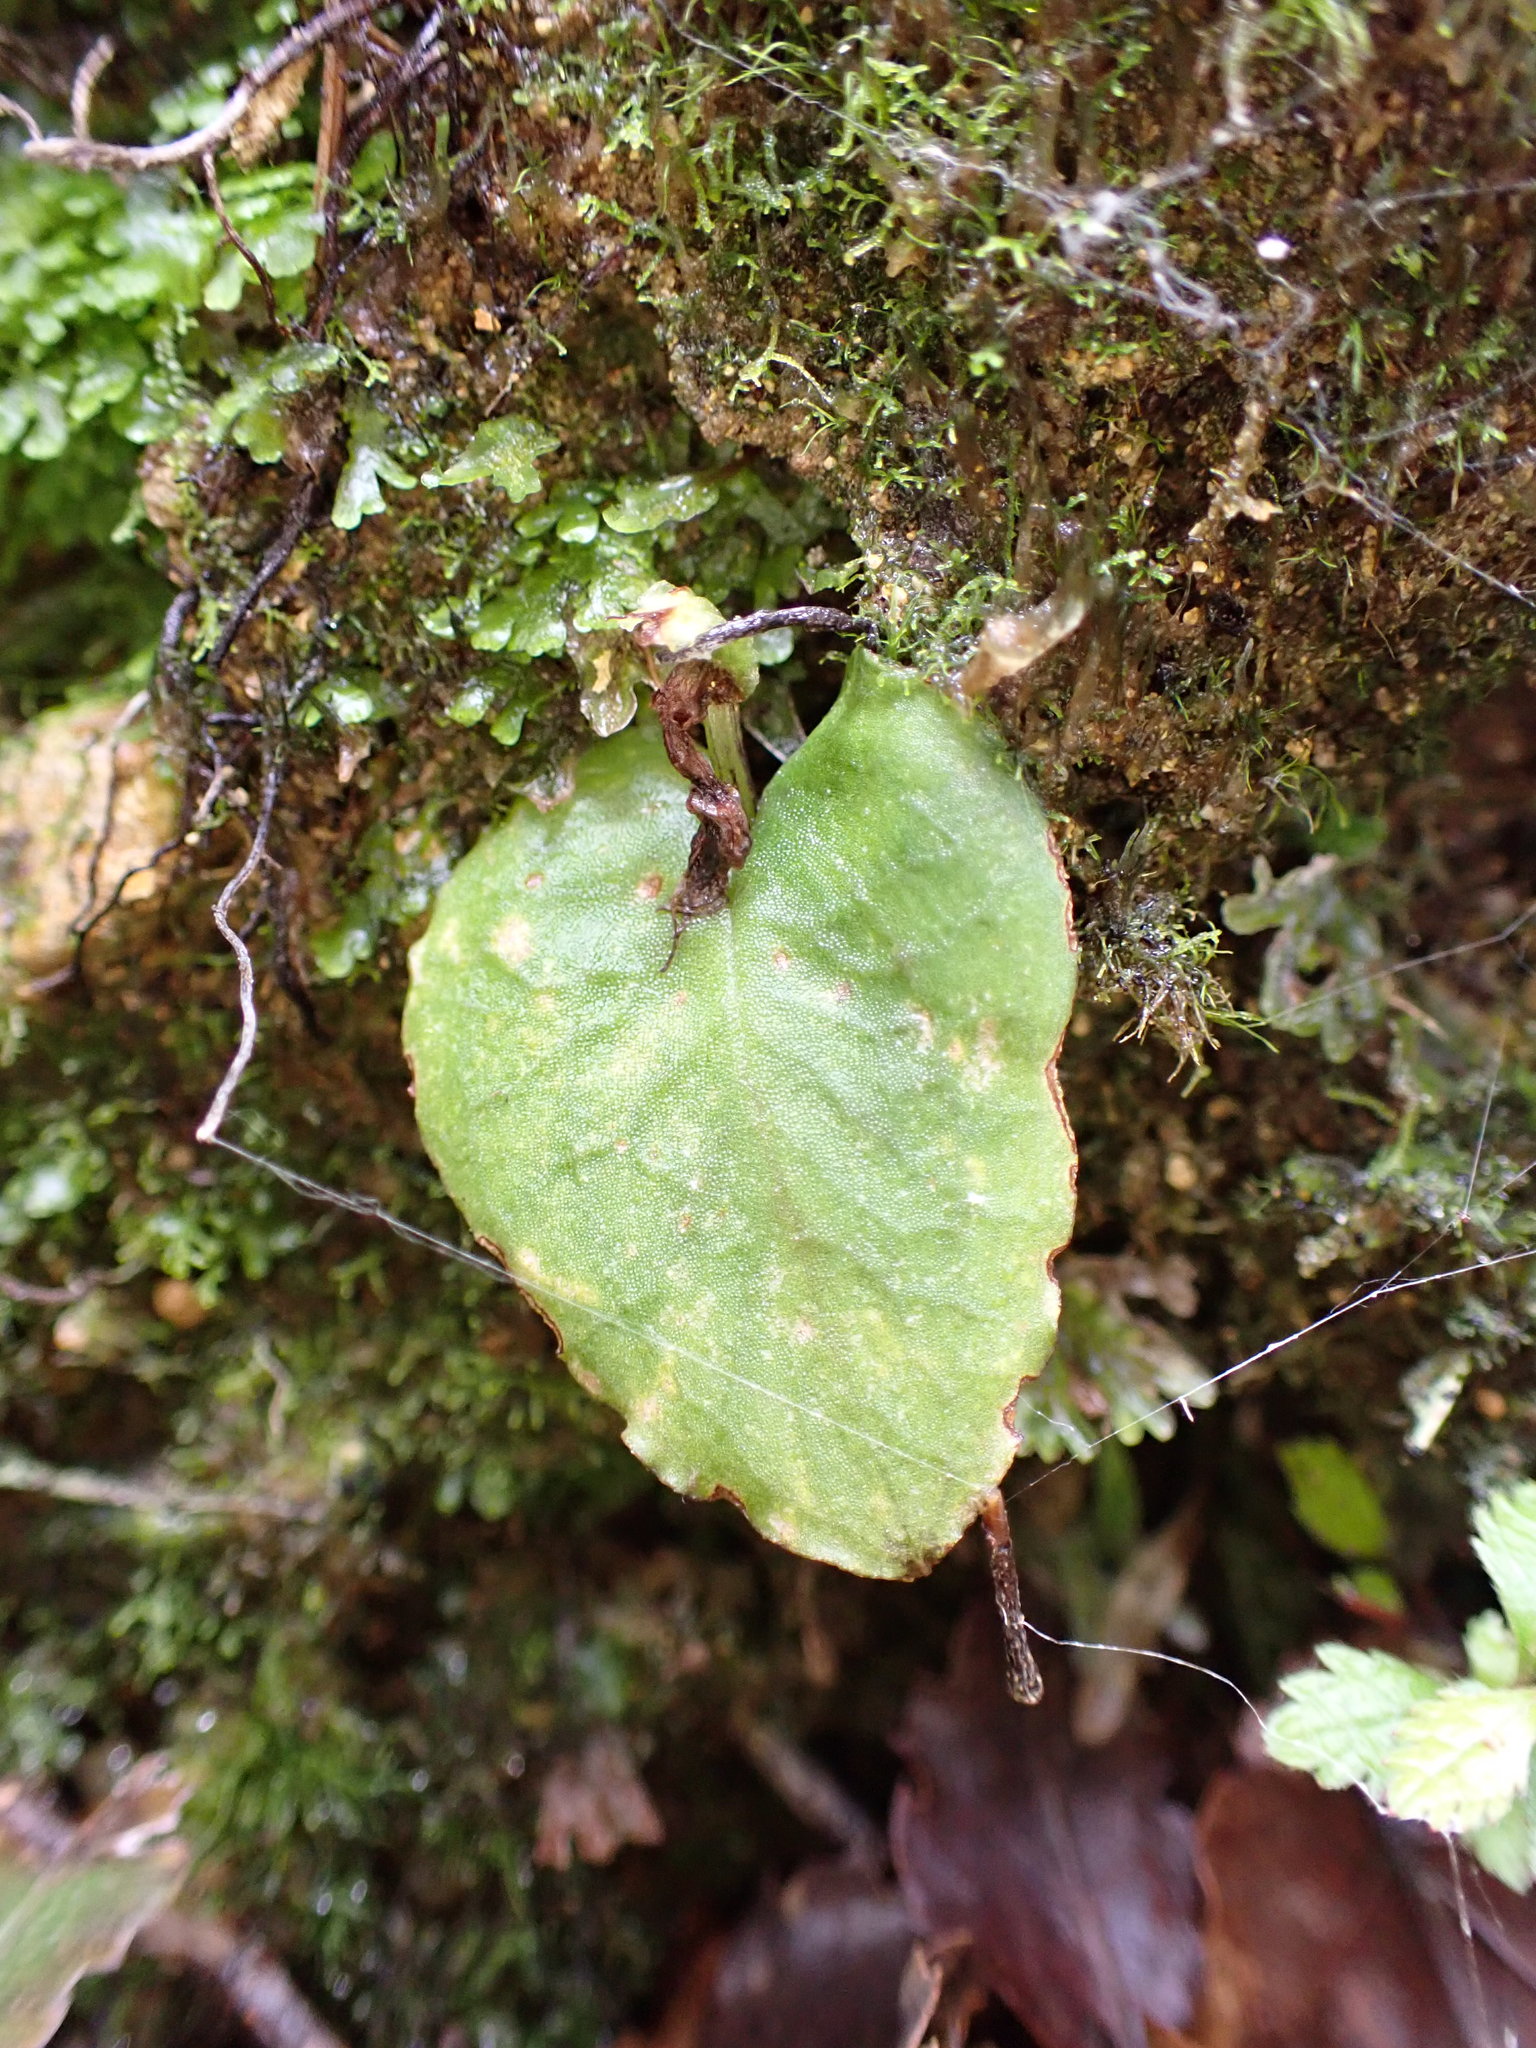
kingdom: Plantae
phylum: Tracheophyta
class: Liliopsida
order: Asparagales
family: Orchidaceae
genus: Corybas
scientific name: Corybas oblongus
